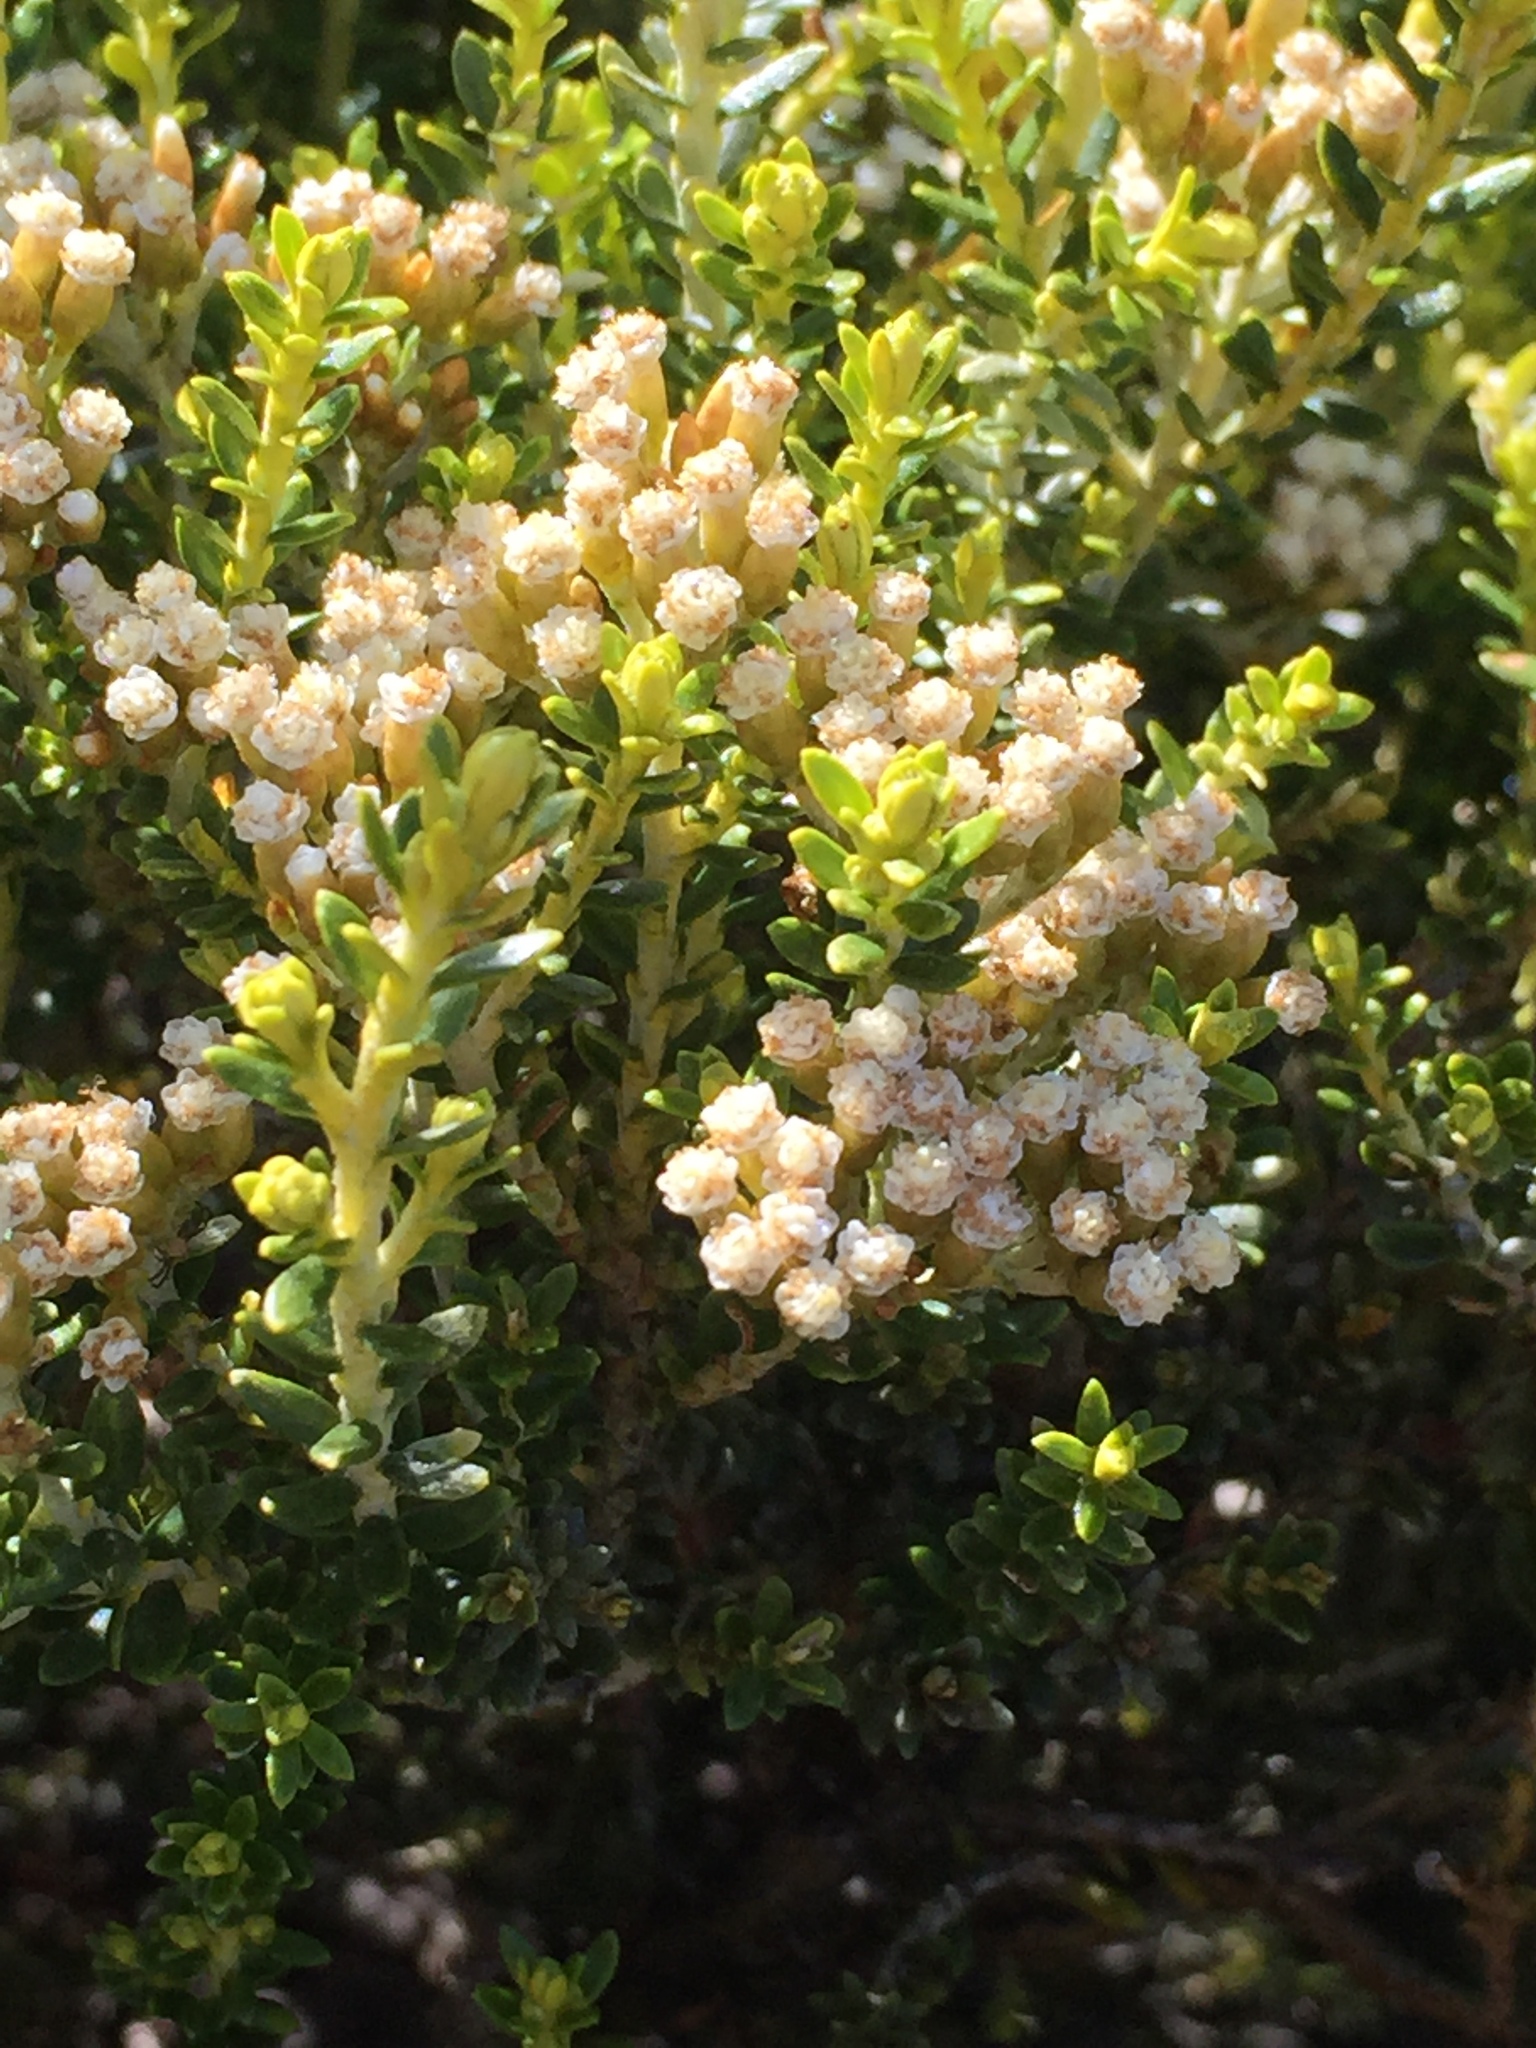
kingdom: Plantae
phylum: Tracheophyta
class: Magnoliopsida
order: Asterales
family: Asteraceae
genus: Ozothamnus
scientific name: Ozothamnus leptophyllus
